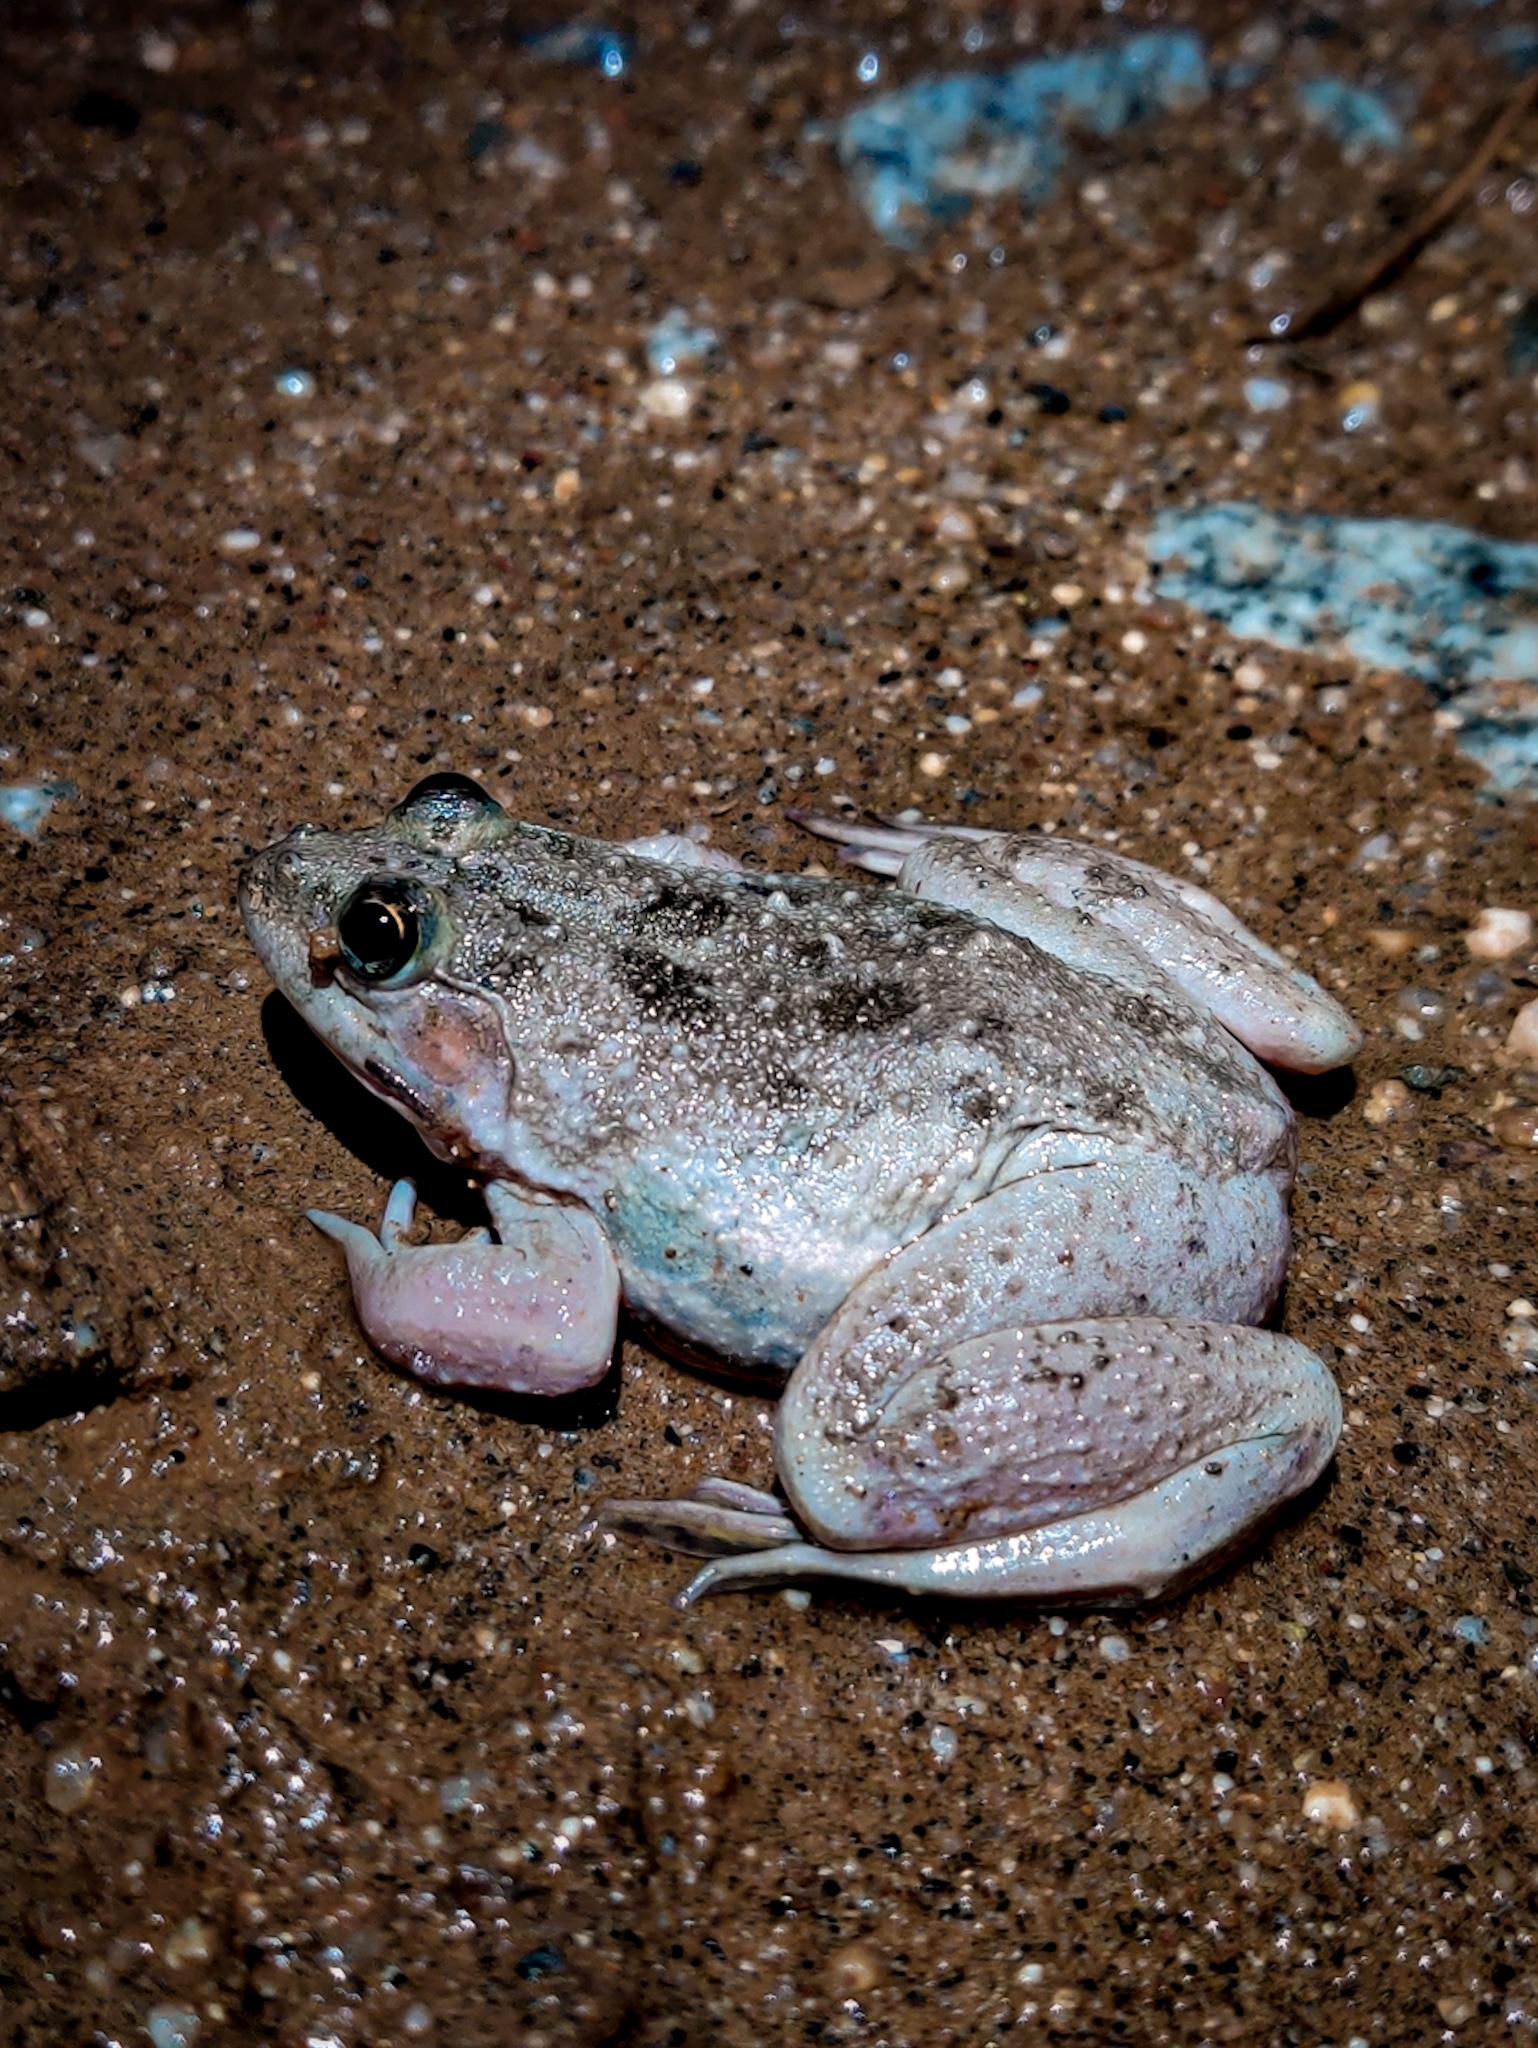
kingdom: Animalia
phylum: Chordata
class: Amphibia
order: Anura
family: Dicroglossidae
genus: Euphlyctis
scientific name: Euphlyctis cyanophlyctis
